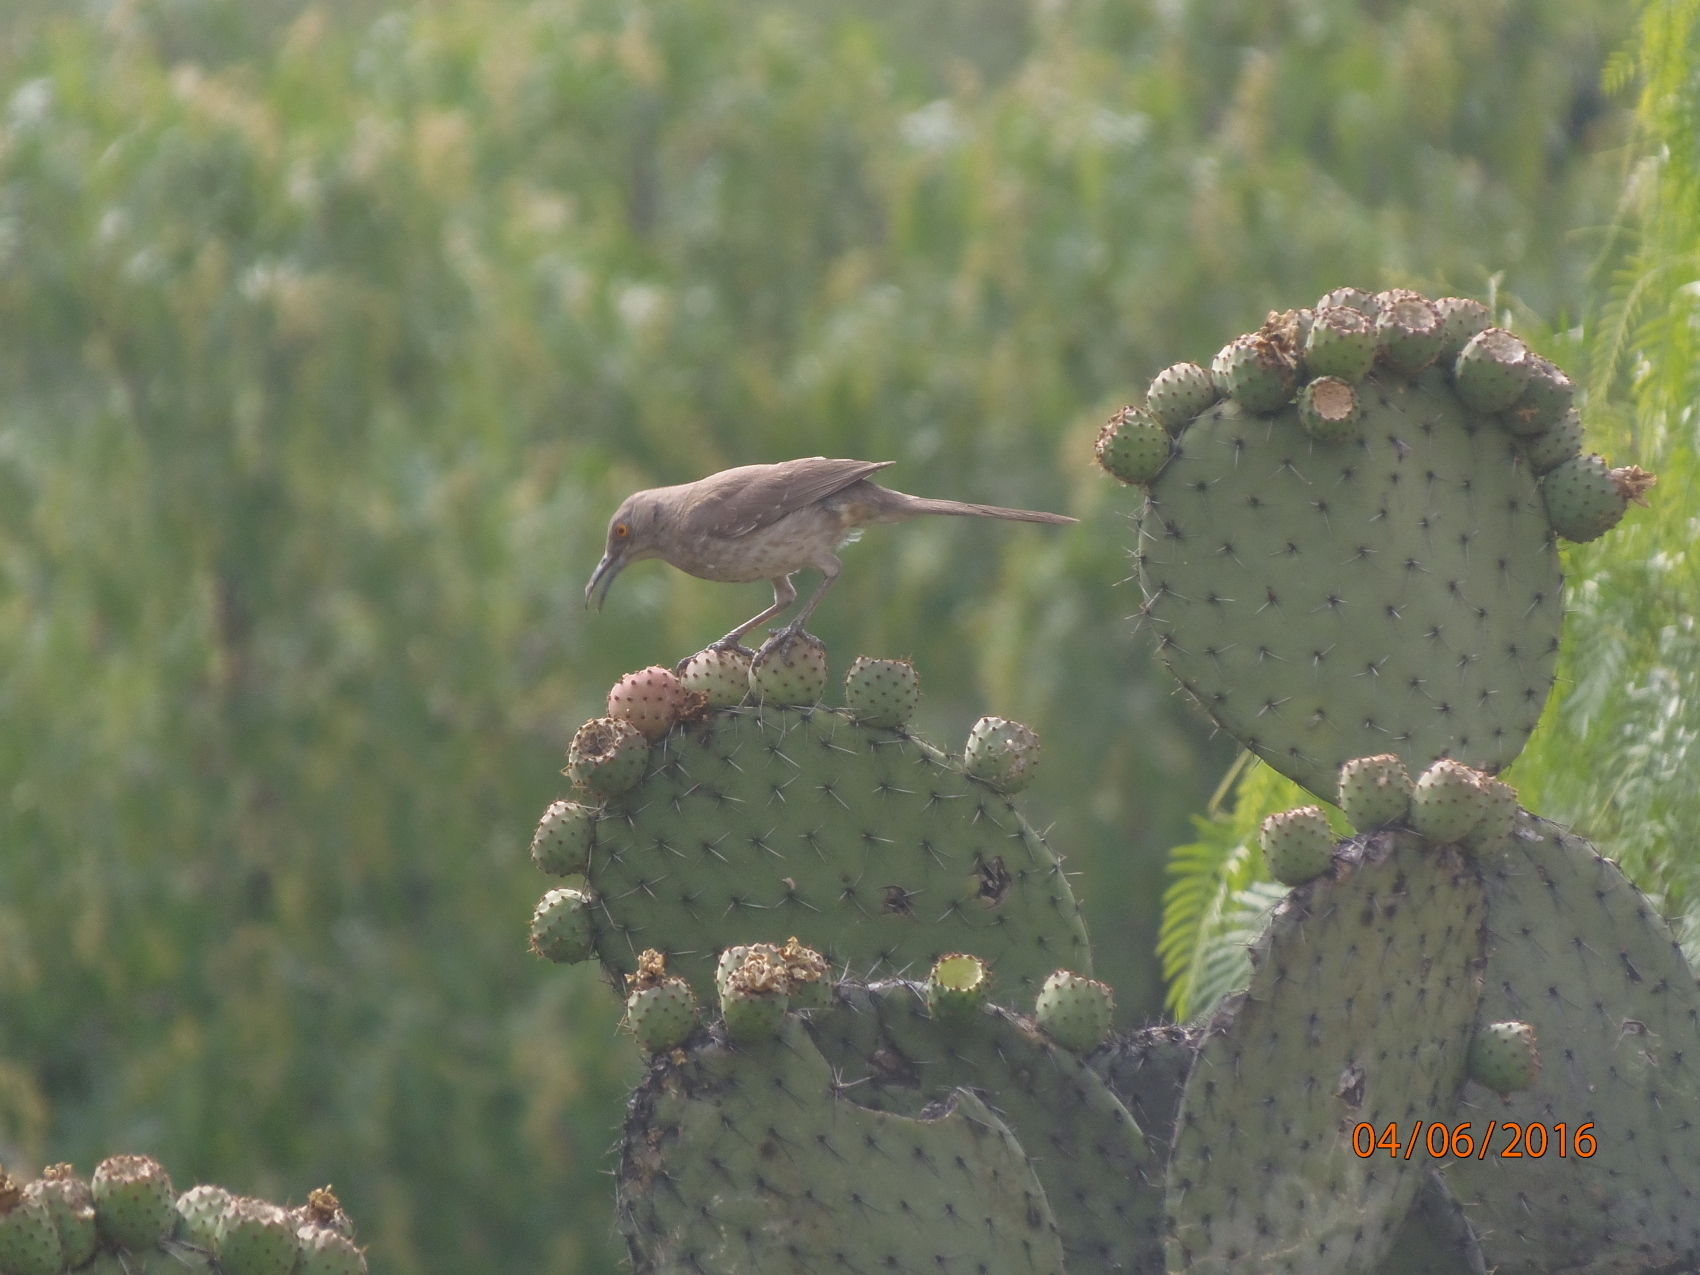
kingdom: Animalia
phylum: Chordata
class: Aves
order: Passeriformes
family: Mimidae
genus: Toxostoma
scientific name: Toxostoma curvirostre
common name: Curve-billed thrasher
